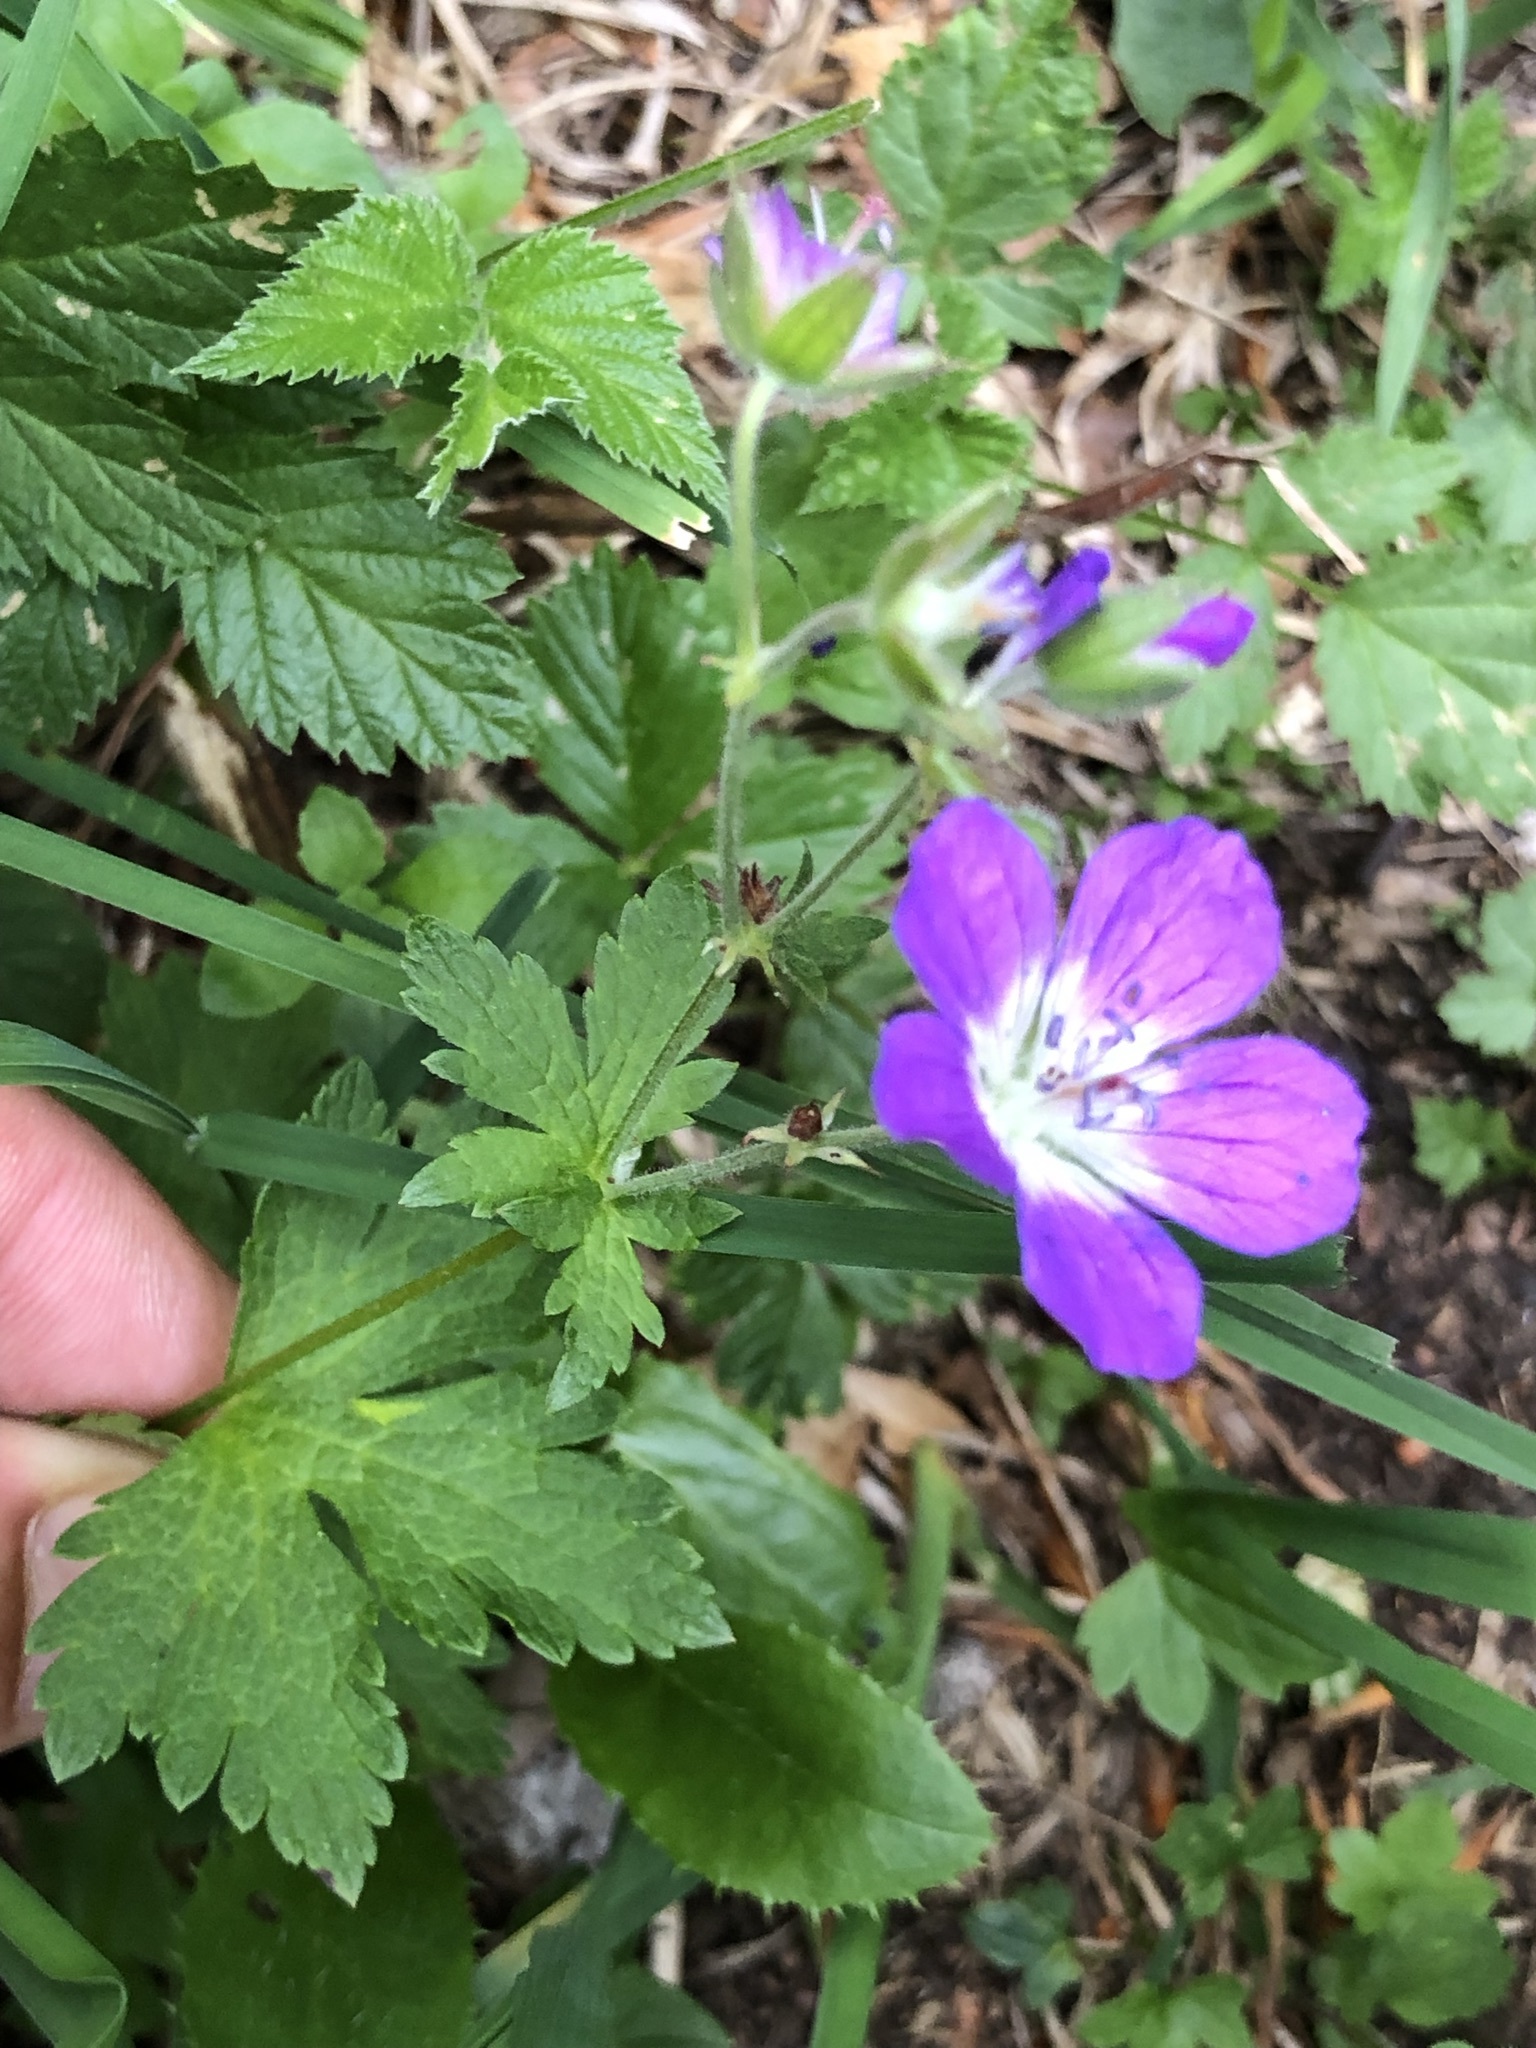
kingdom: Plantae
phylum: Tracheophyta
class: Magnoliopsida
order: Geraniales
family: Geraniaceae
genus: Geranium
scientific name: Geranium sylvaticum
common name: Wood crane's-bill
